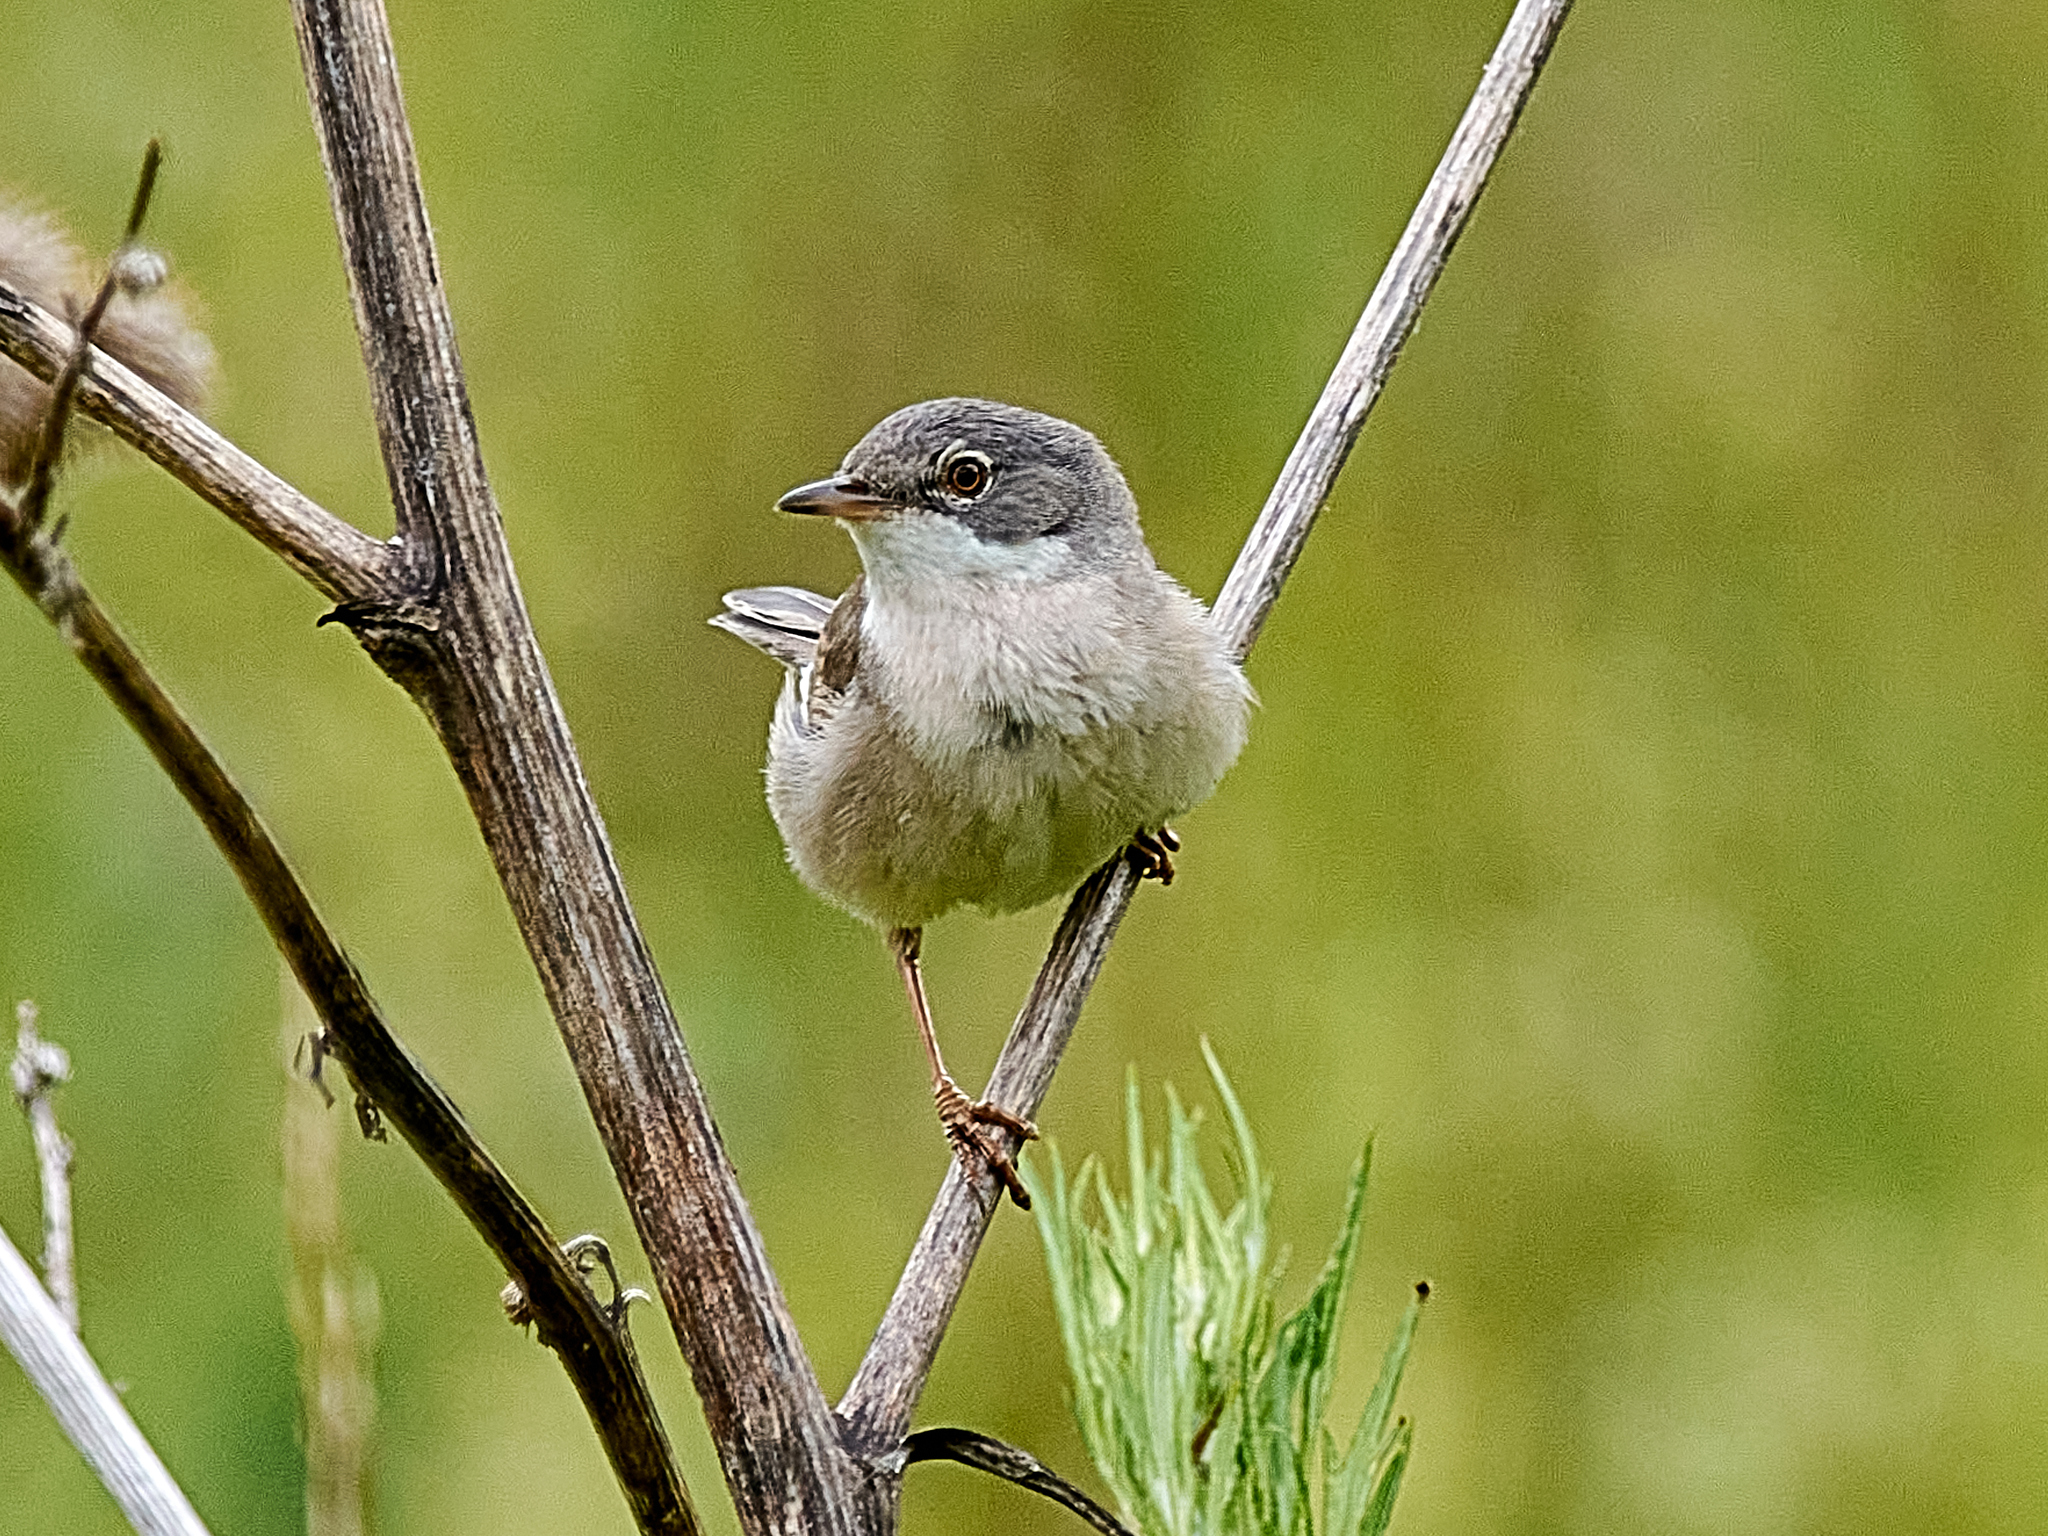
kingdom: Animalia
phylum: Chordata
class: Aves
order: Passeriformes
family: Sylviidae
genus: Sylvia
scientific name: Sylvia communis
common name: Common whitethroat
